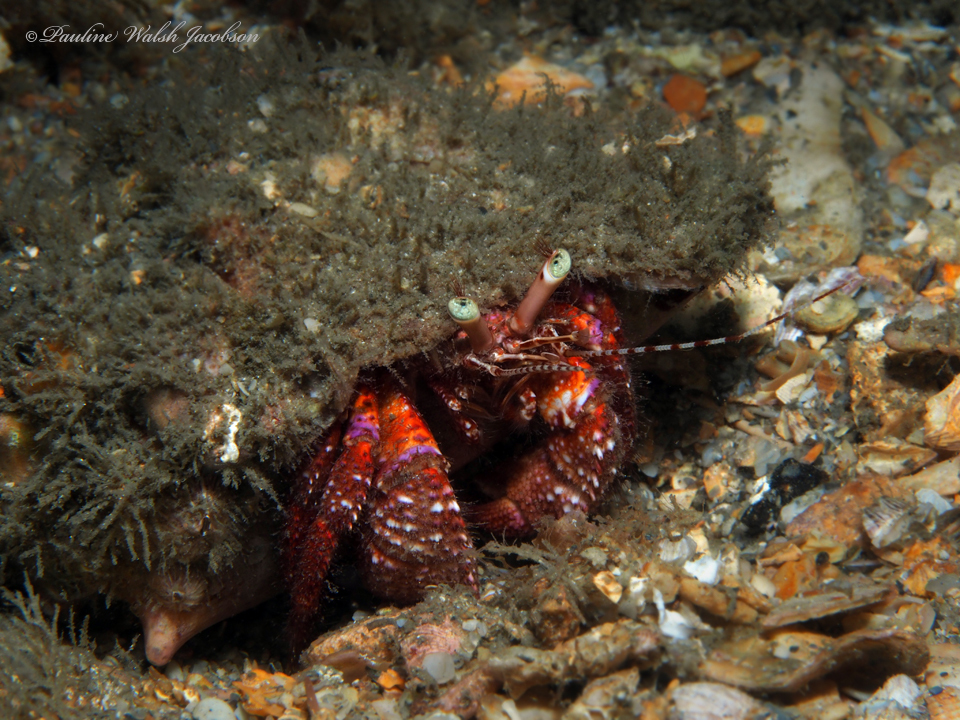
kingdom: Animalia
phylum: Arthropoda
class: Malacostraca
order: Decapoda
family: Diogenidae
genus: Petrochirus
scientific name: Petrochirus diogenes
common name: Giant hermit crab
